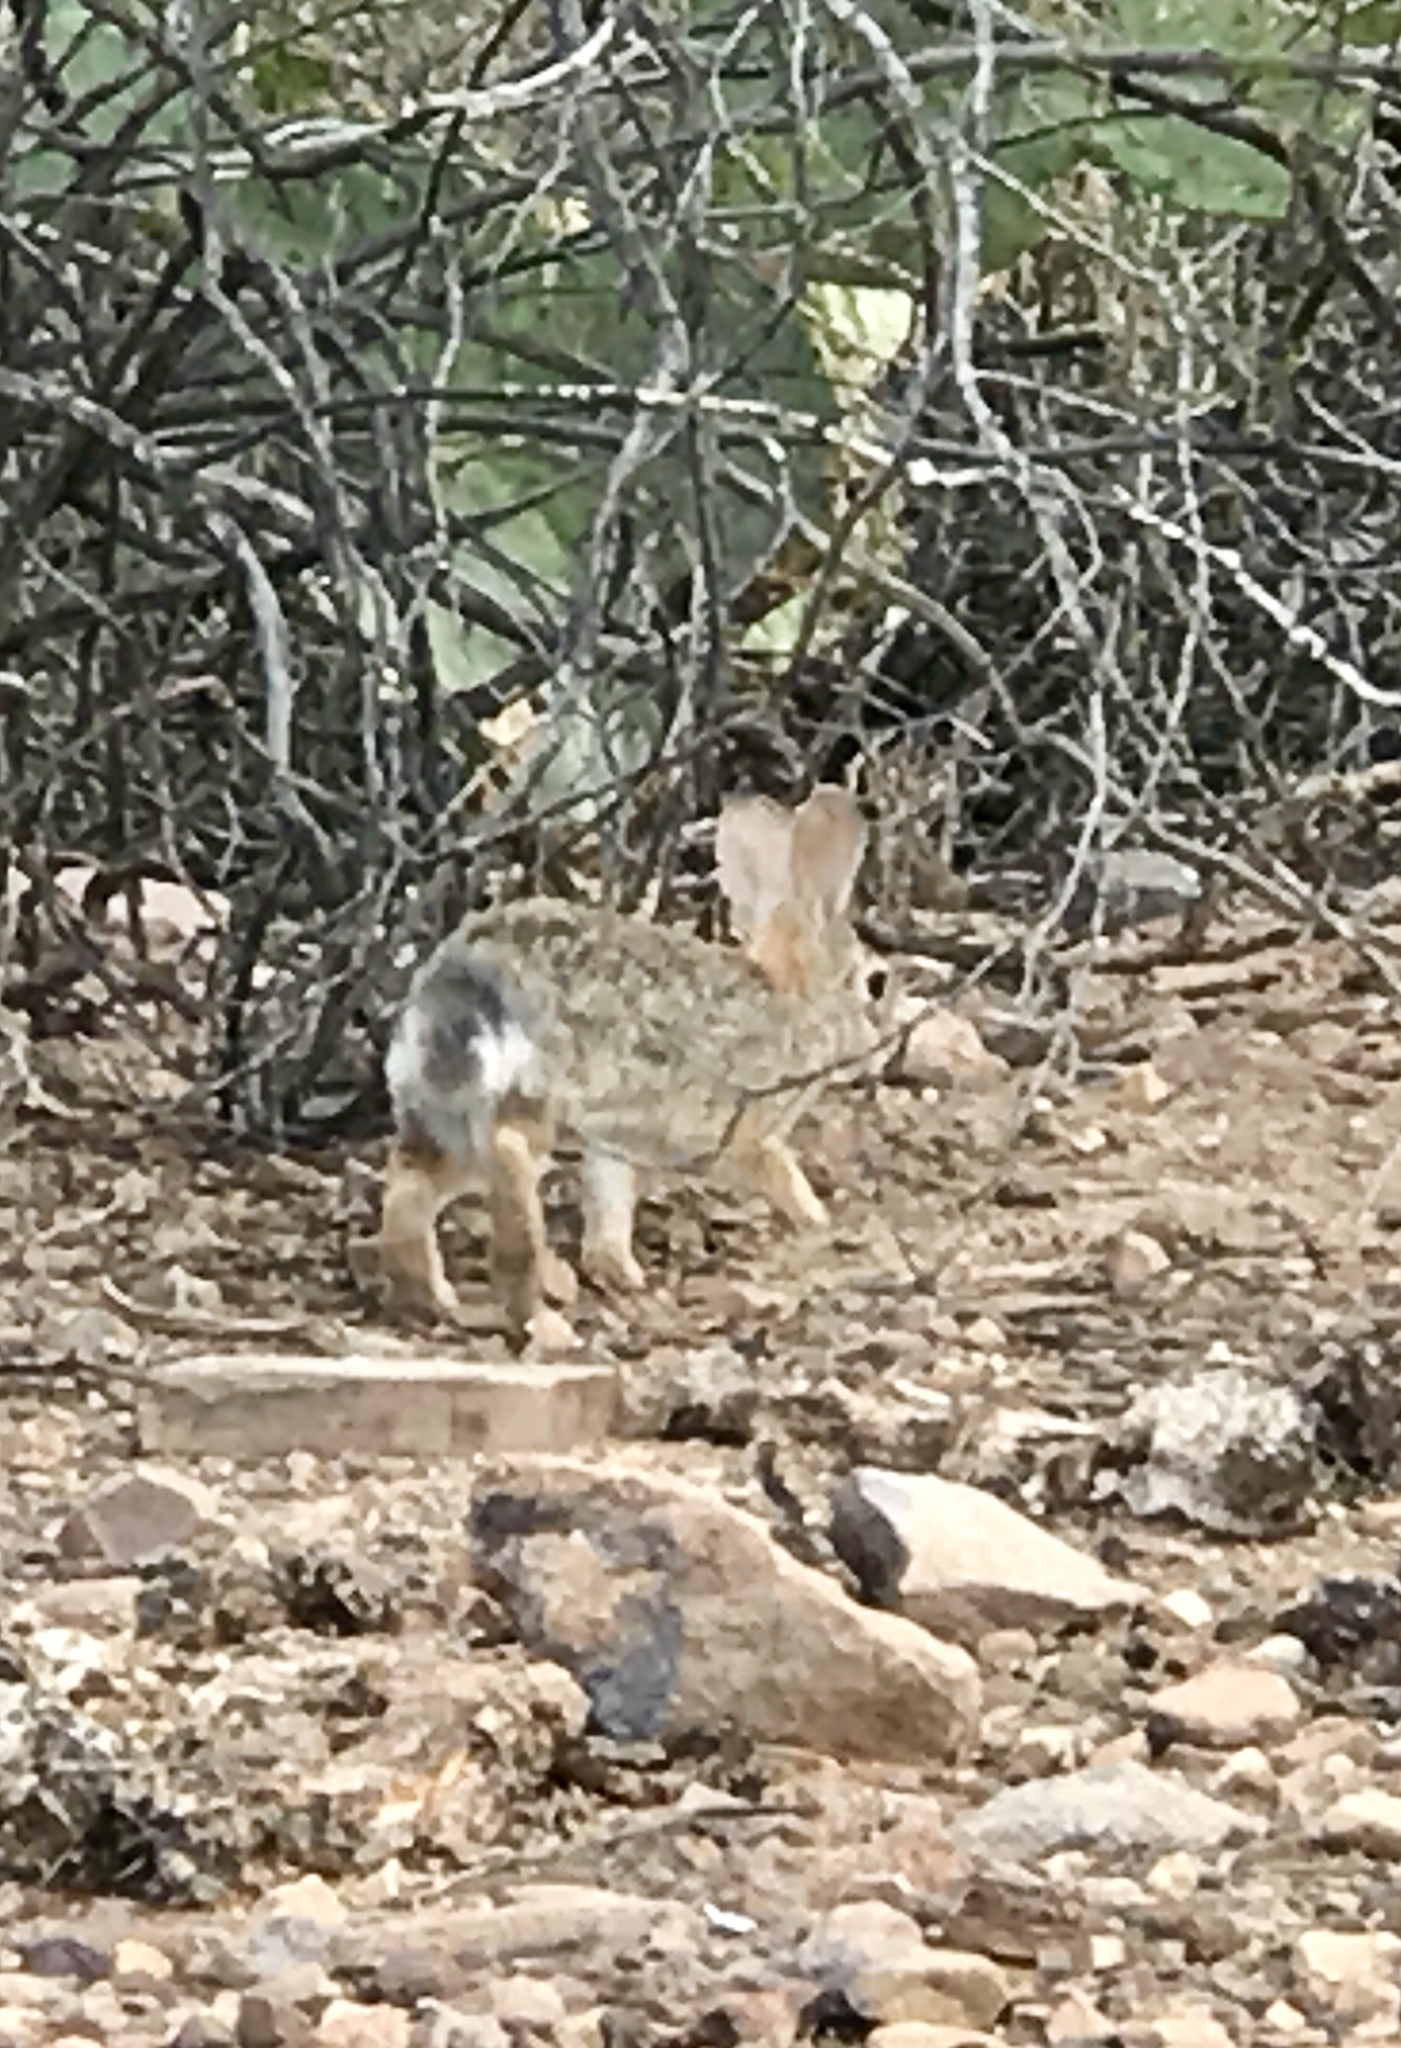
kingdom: Animalia
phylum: Chordata
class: Mammalia
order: Lagomorpha
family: Leporidae
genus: Sylvilagus
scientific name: Sylvilagus audubonii
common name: Desert cottontail
